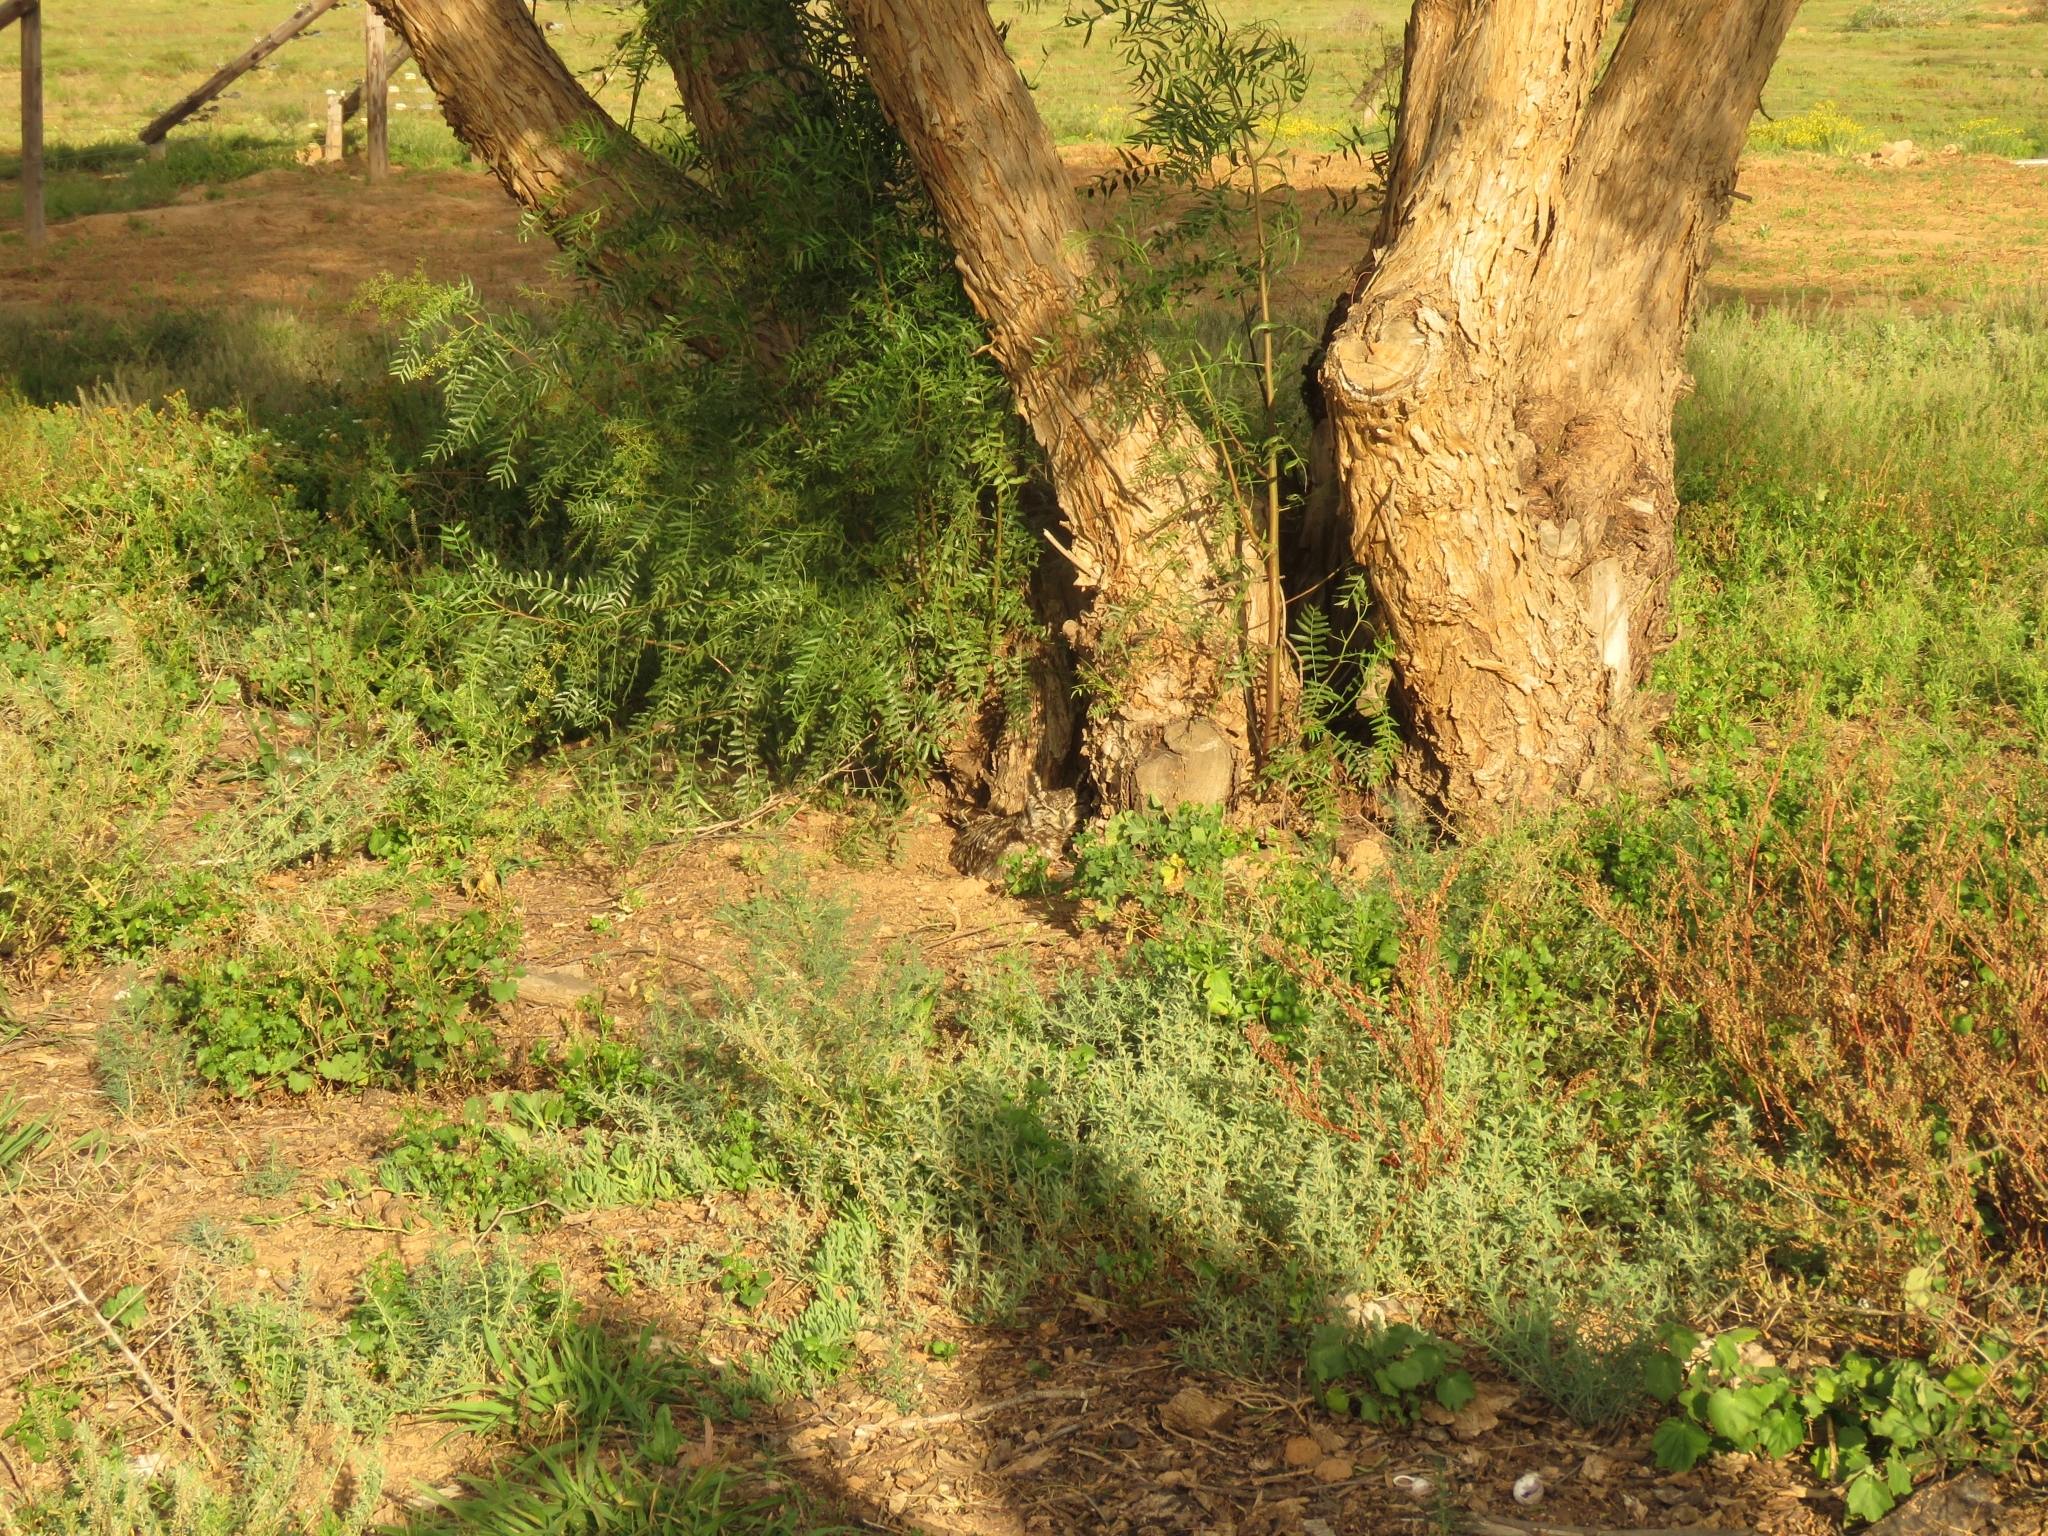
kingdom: Animalia
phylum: Chordata
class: Aves
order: Strigiformes
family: Strigidae
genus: Bubo
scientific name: Bubo africanus
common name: Spotted eagle-owl
